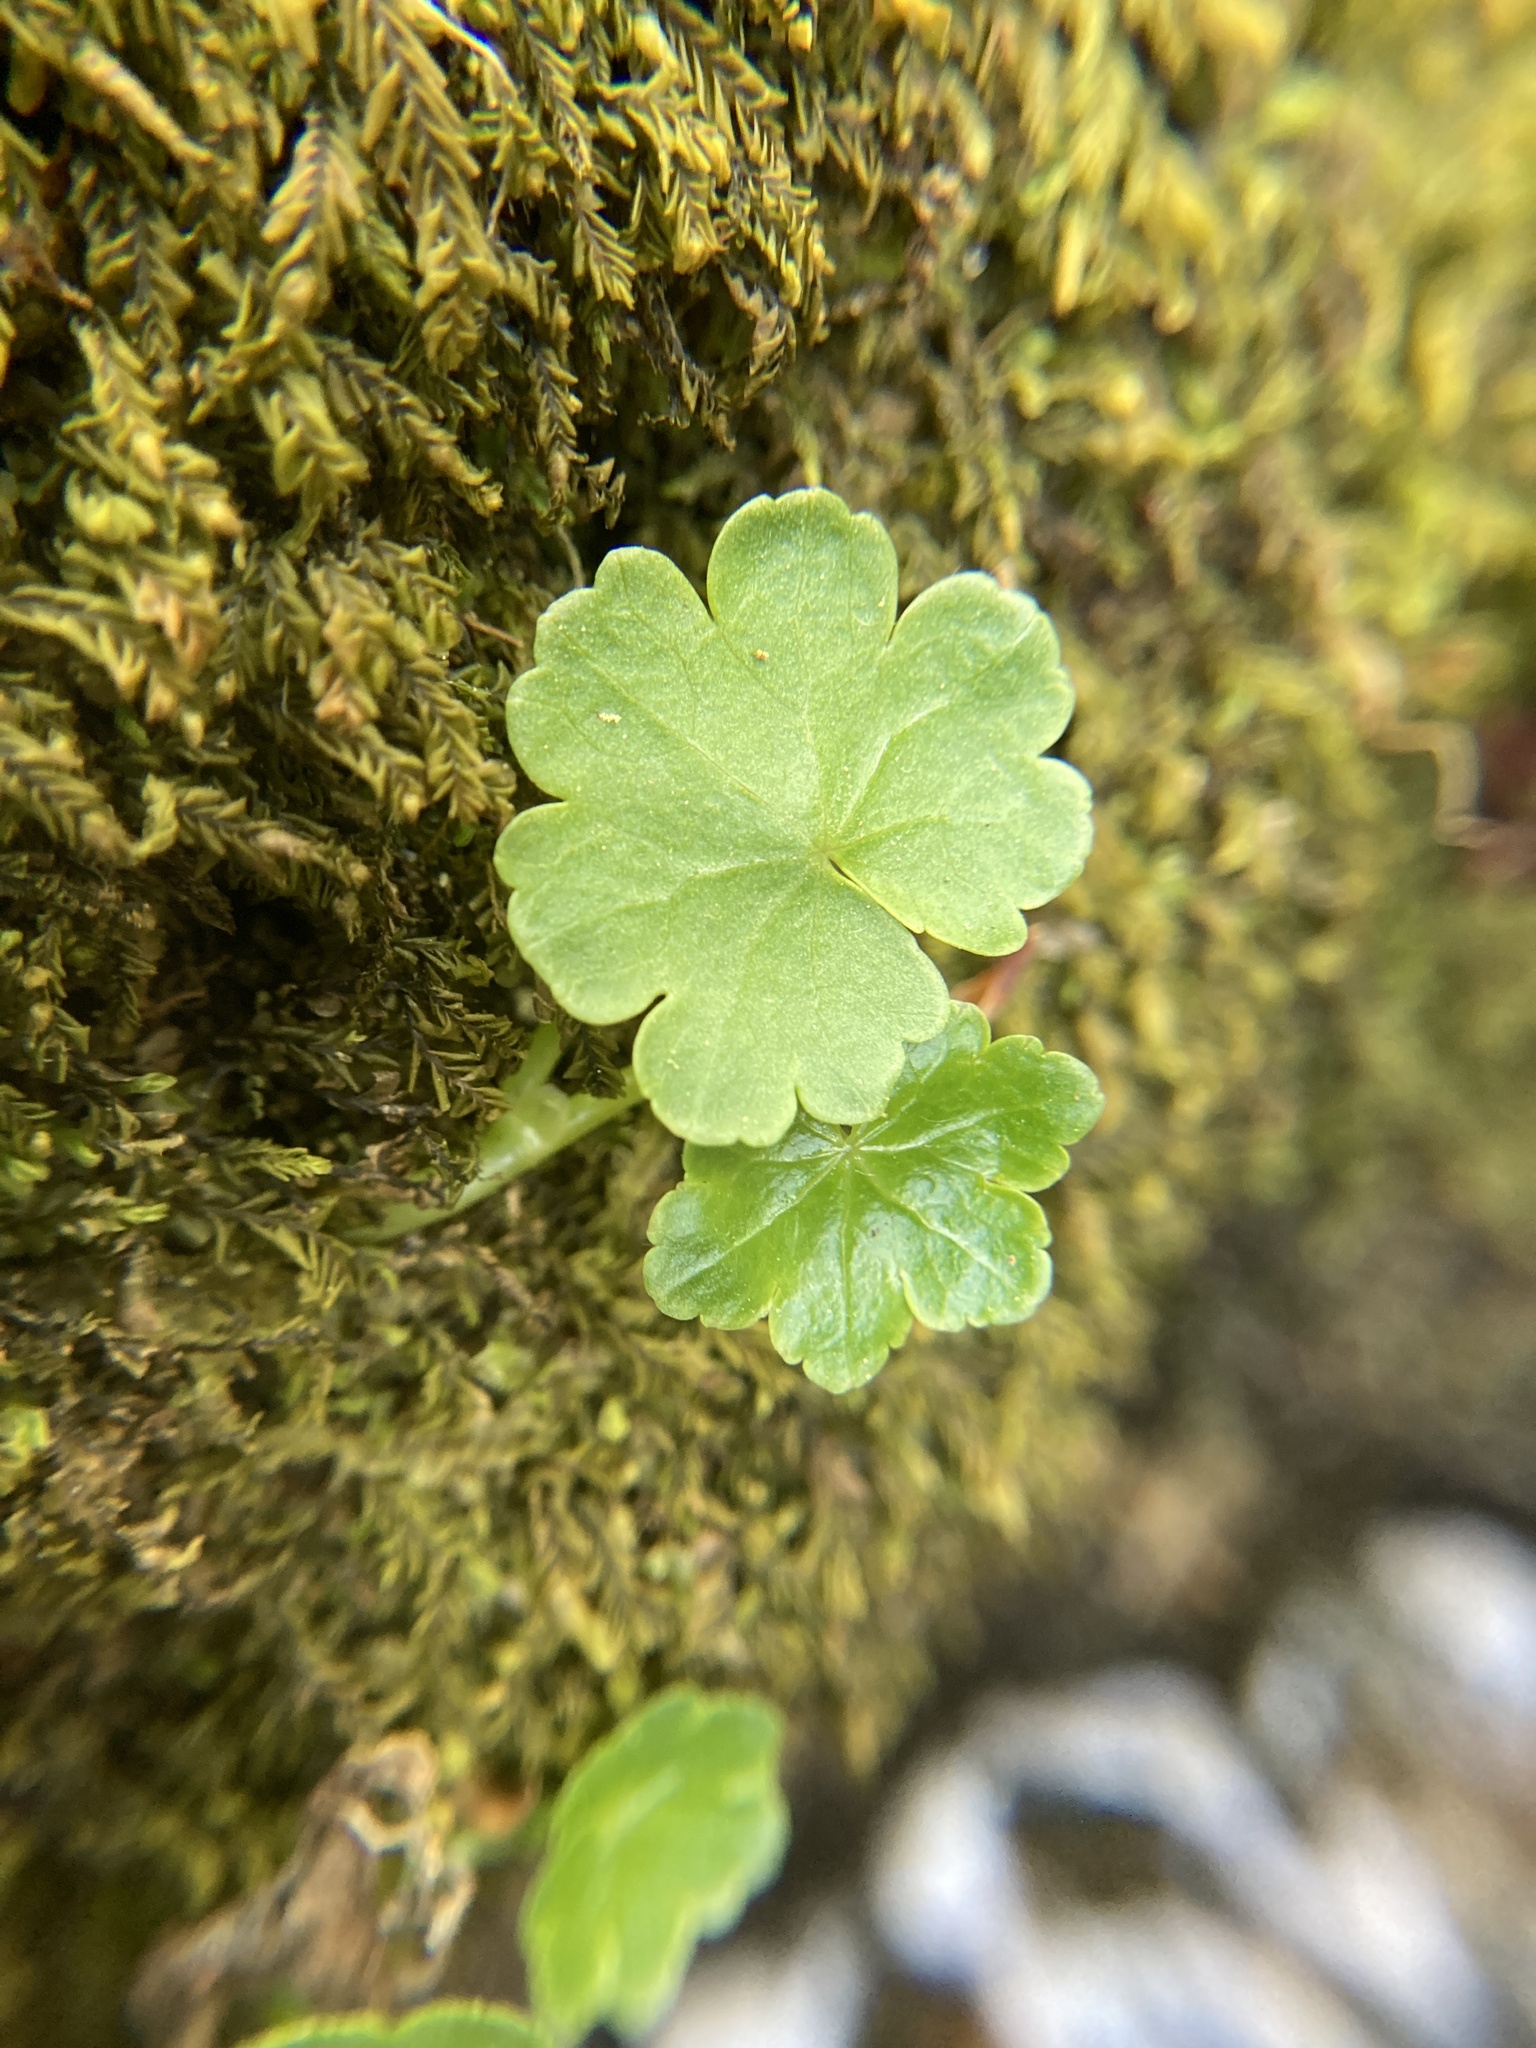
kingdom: Plantae
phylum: Tracheophyta
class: Magnoliopsida
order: Apiales
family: Araliaceae
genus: Hydrocotyle
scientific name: Hydrocotyle americana
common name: American water-pennywort
